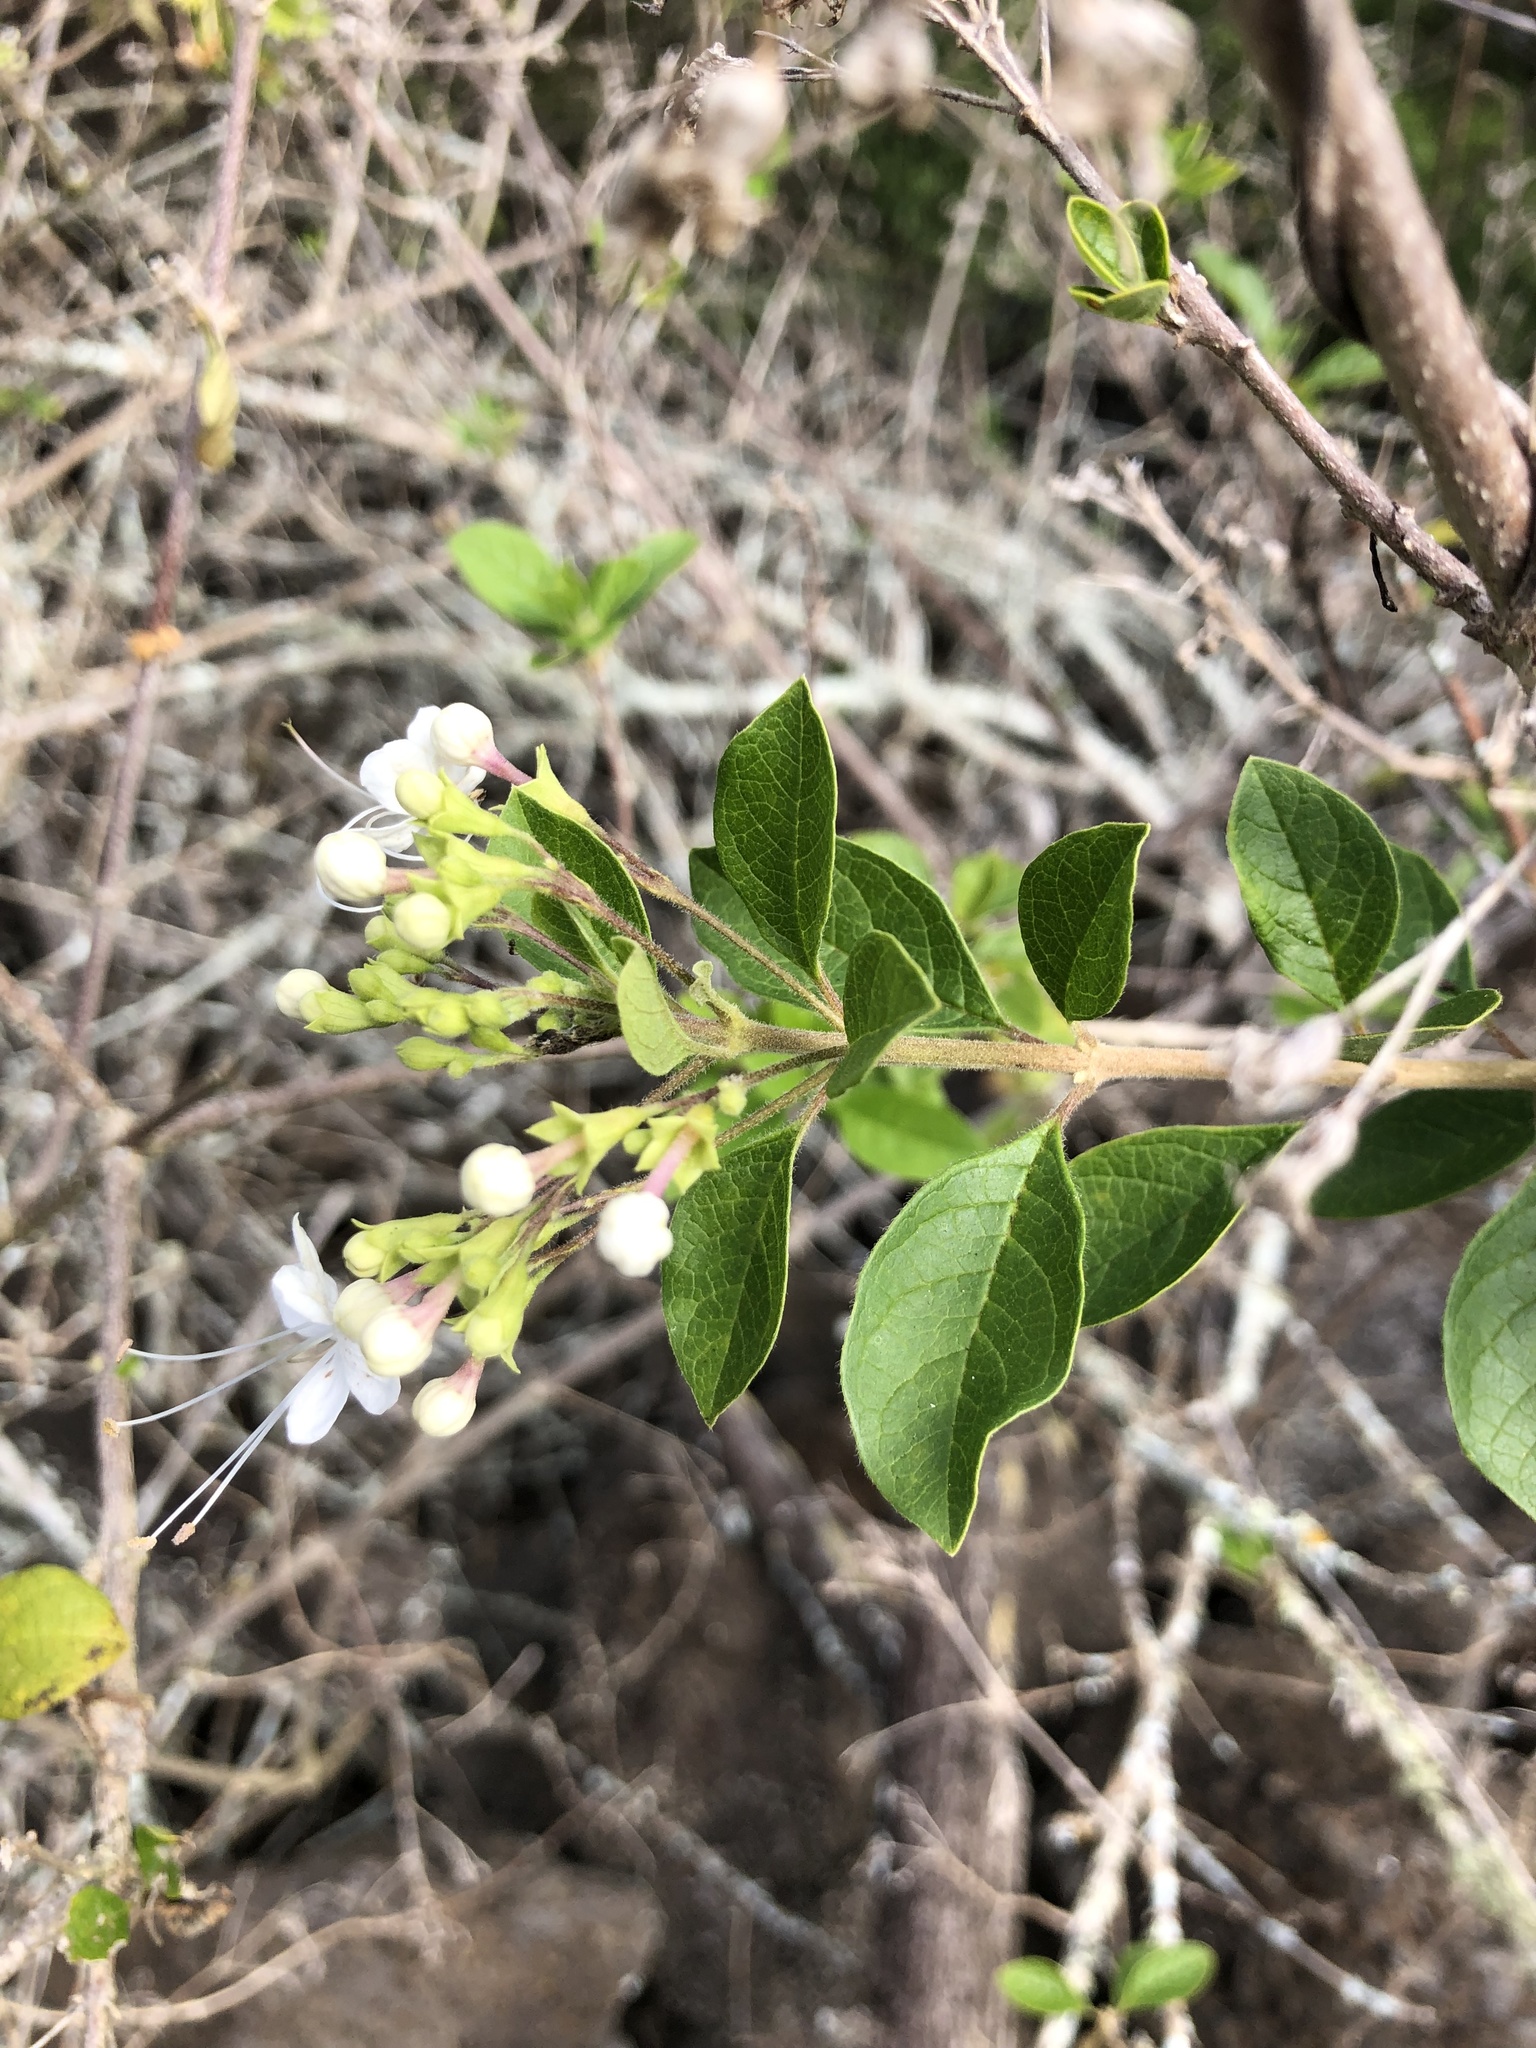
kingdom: Plantae
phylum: Tracheophyta
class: Magnoliopsida
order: Lamiales
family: Lamiaceae
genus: Volkameria
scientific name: Volkameria mollis
